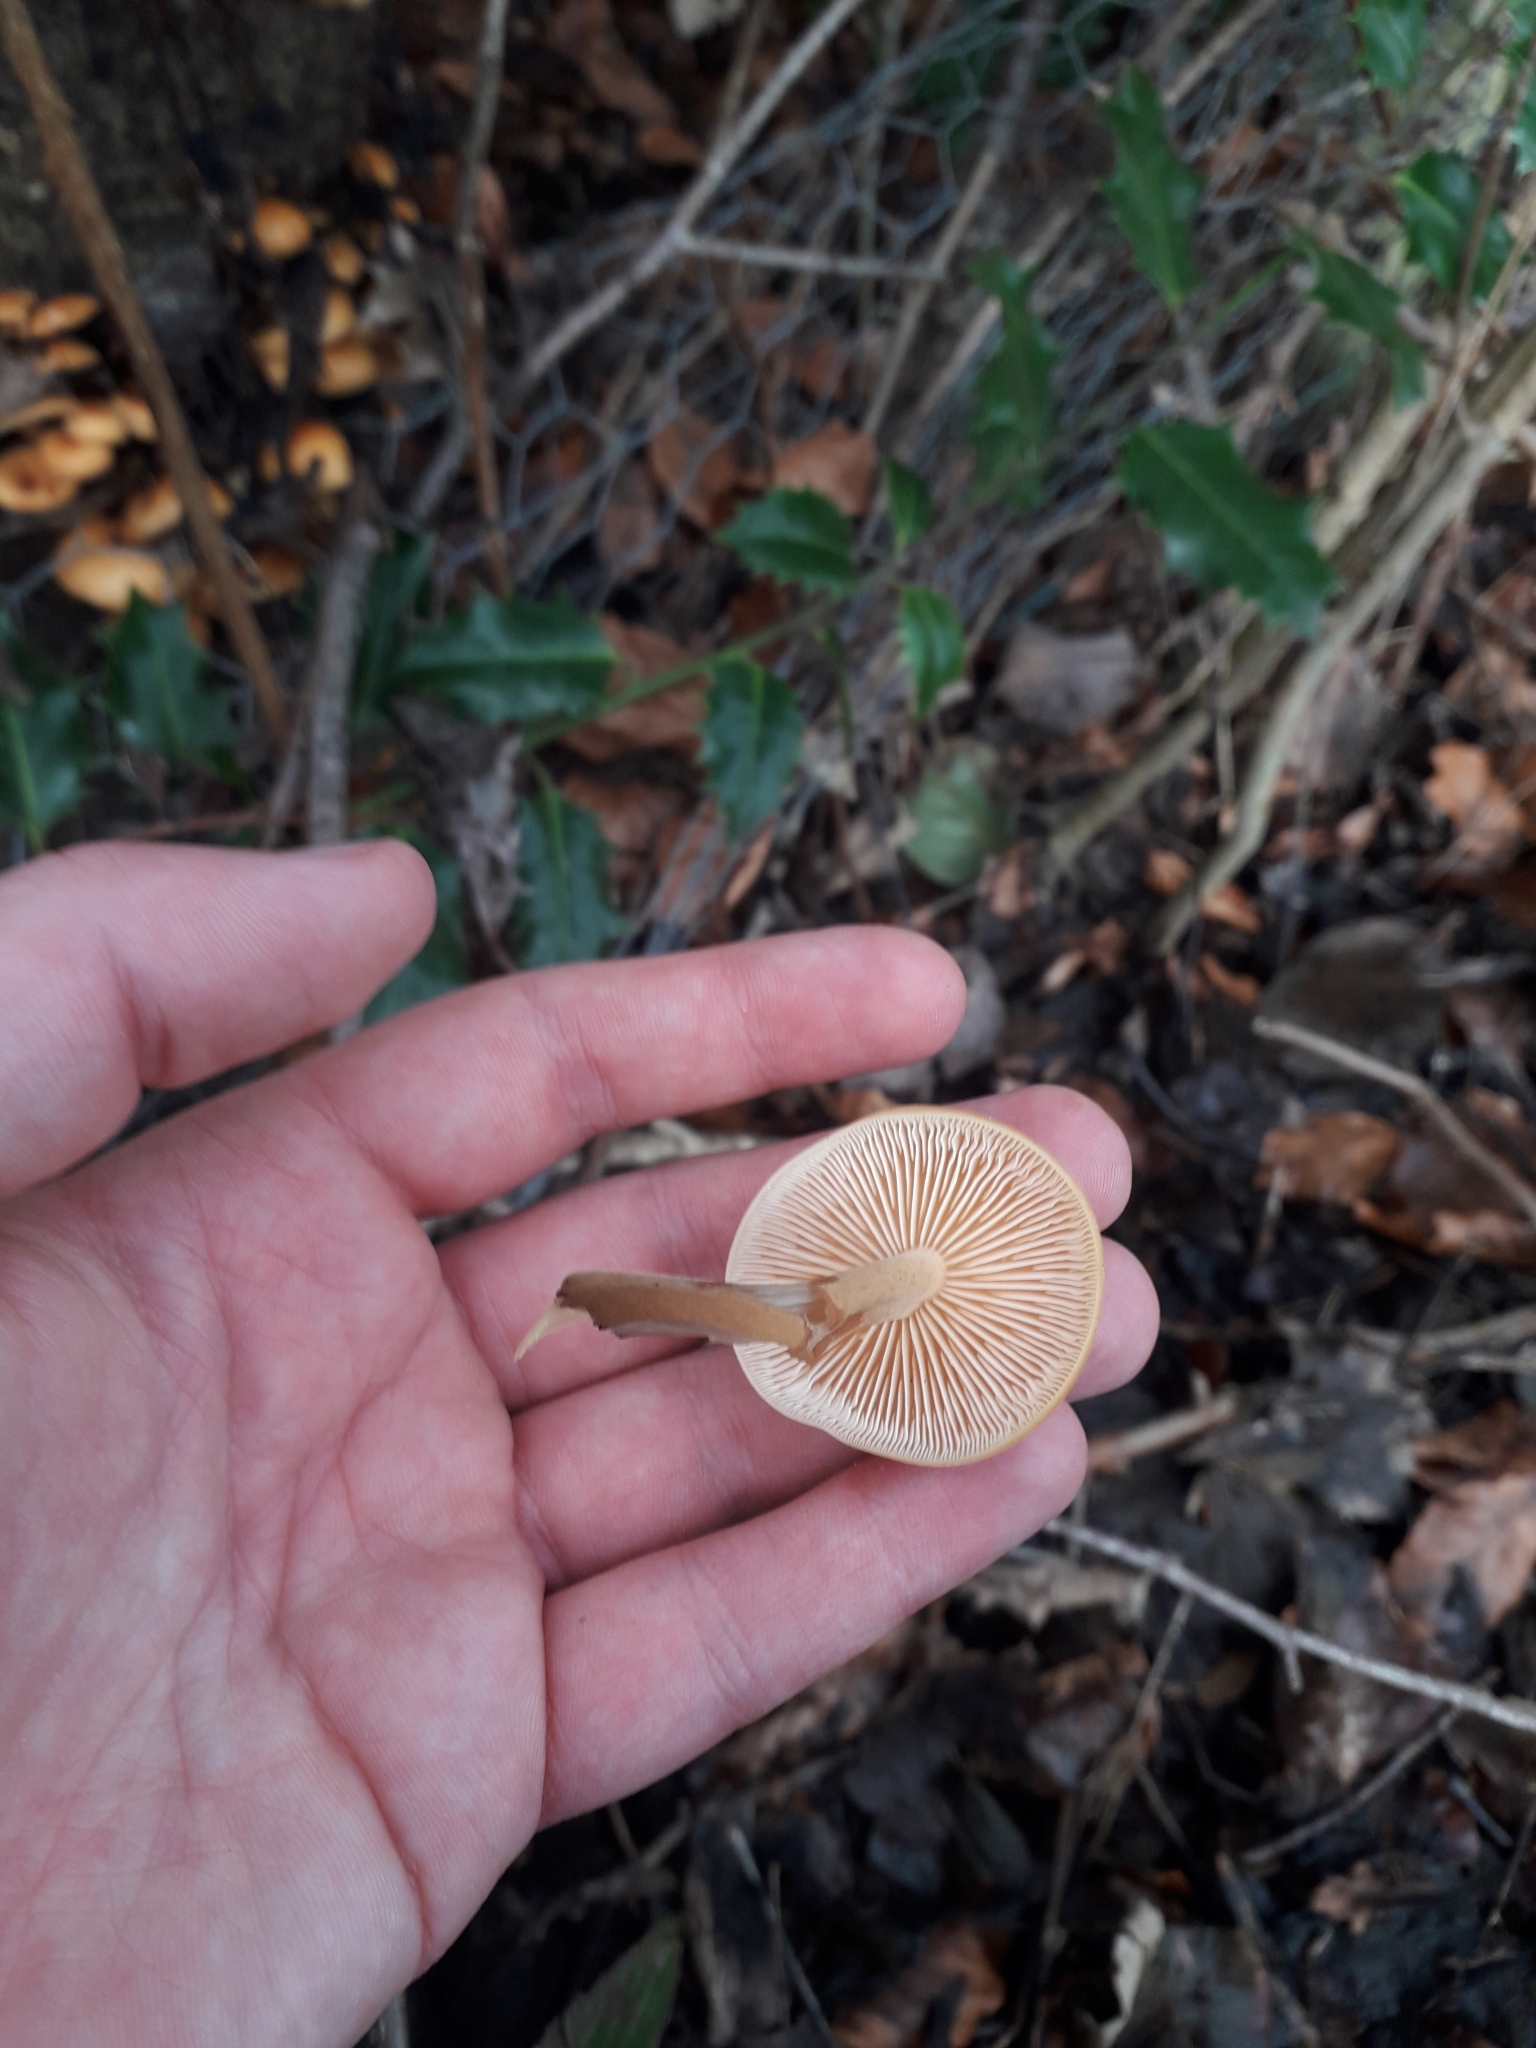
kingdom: Fungi
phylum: Basidiomycota
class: Agaricomycetes
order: Agaricales
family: Physalacriaceae
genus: Flammulina
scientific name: Flammulina
